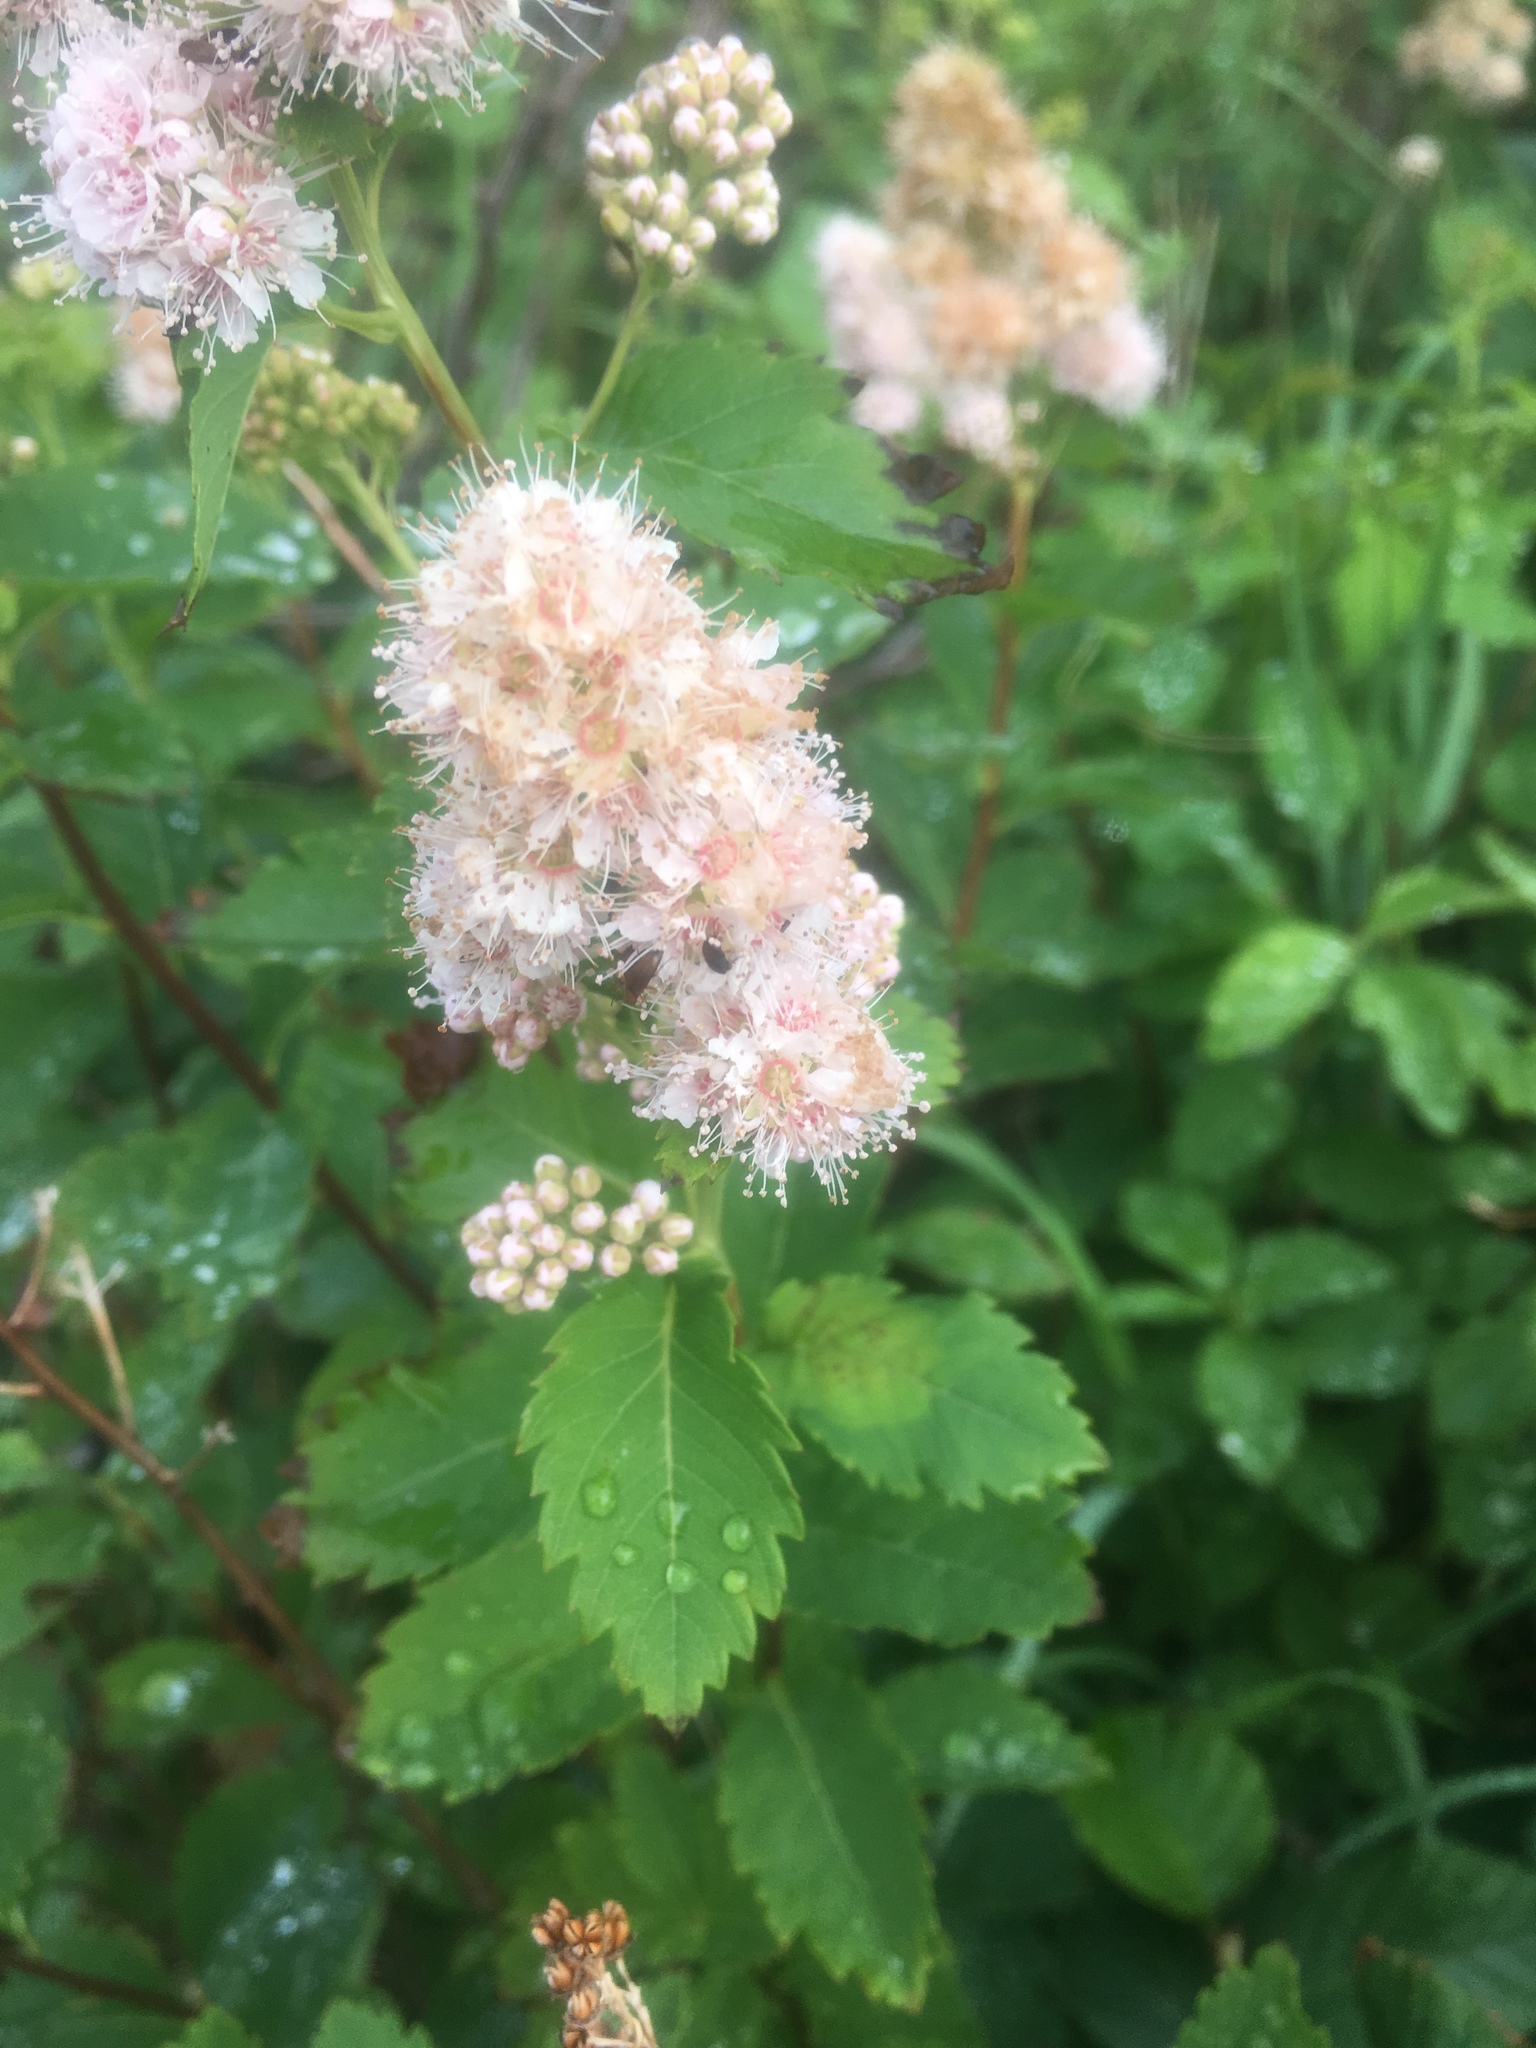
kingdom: Plantae
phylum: Tracheophyta
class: Magnoliopsida
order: Rosales
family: Rosaceae
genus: Spiraea
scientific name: Spiraea alba
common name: Pale bridewort
